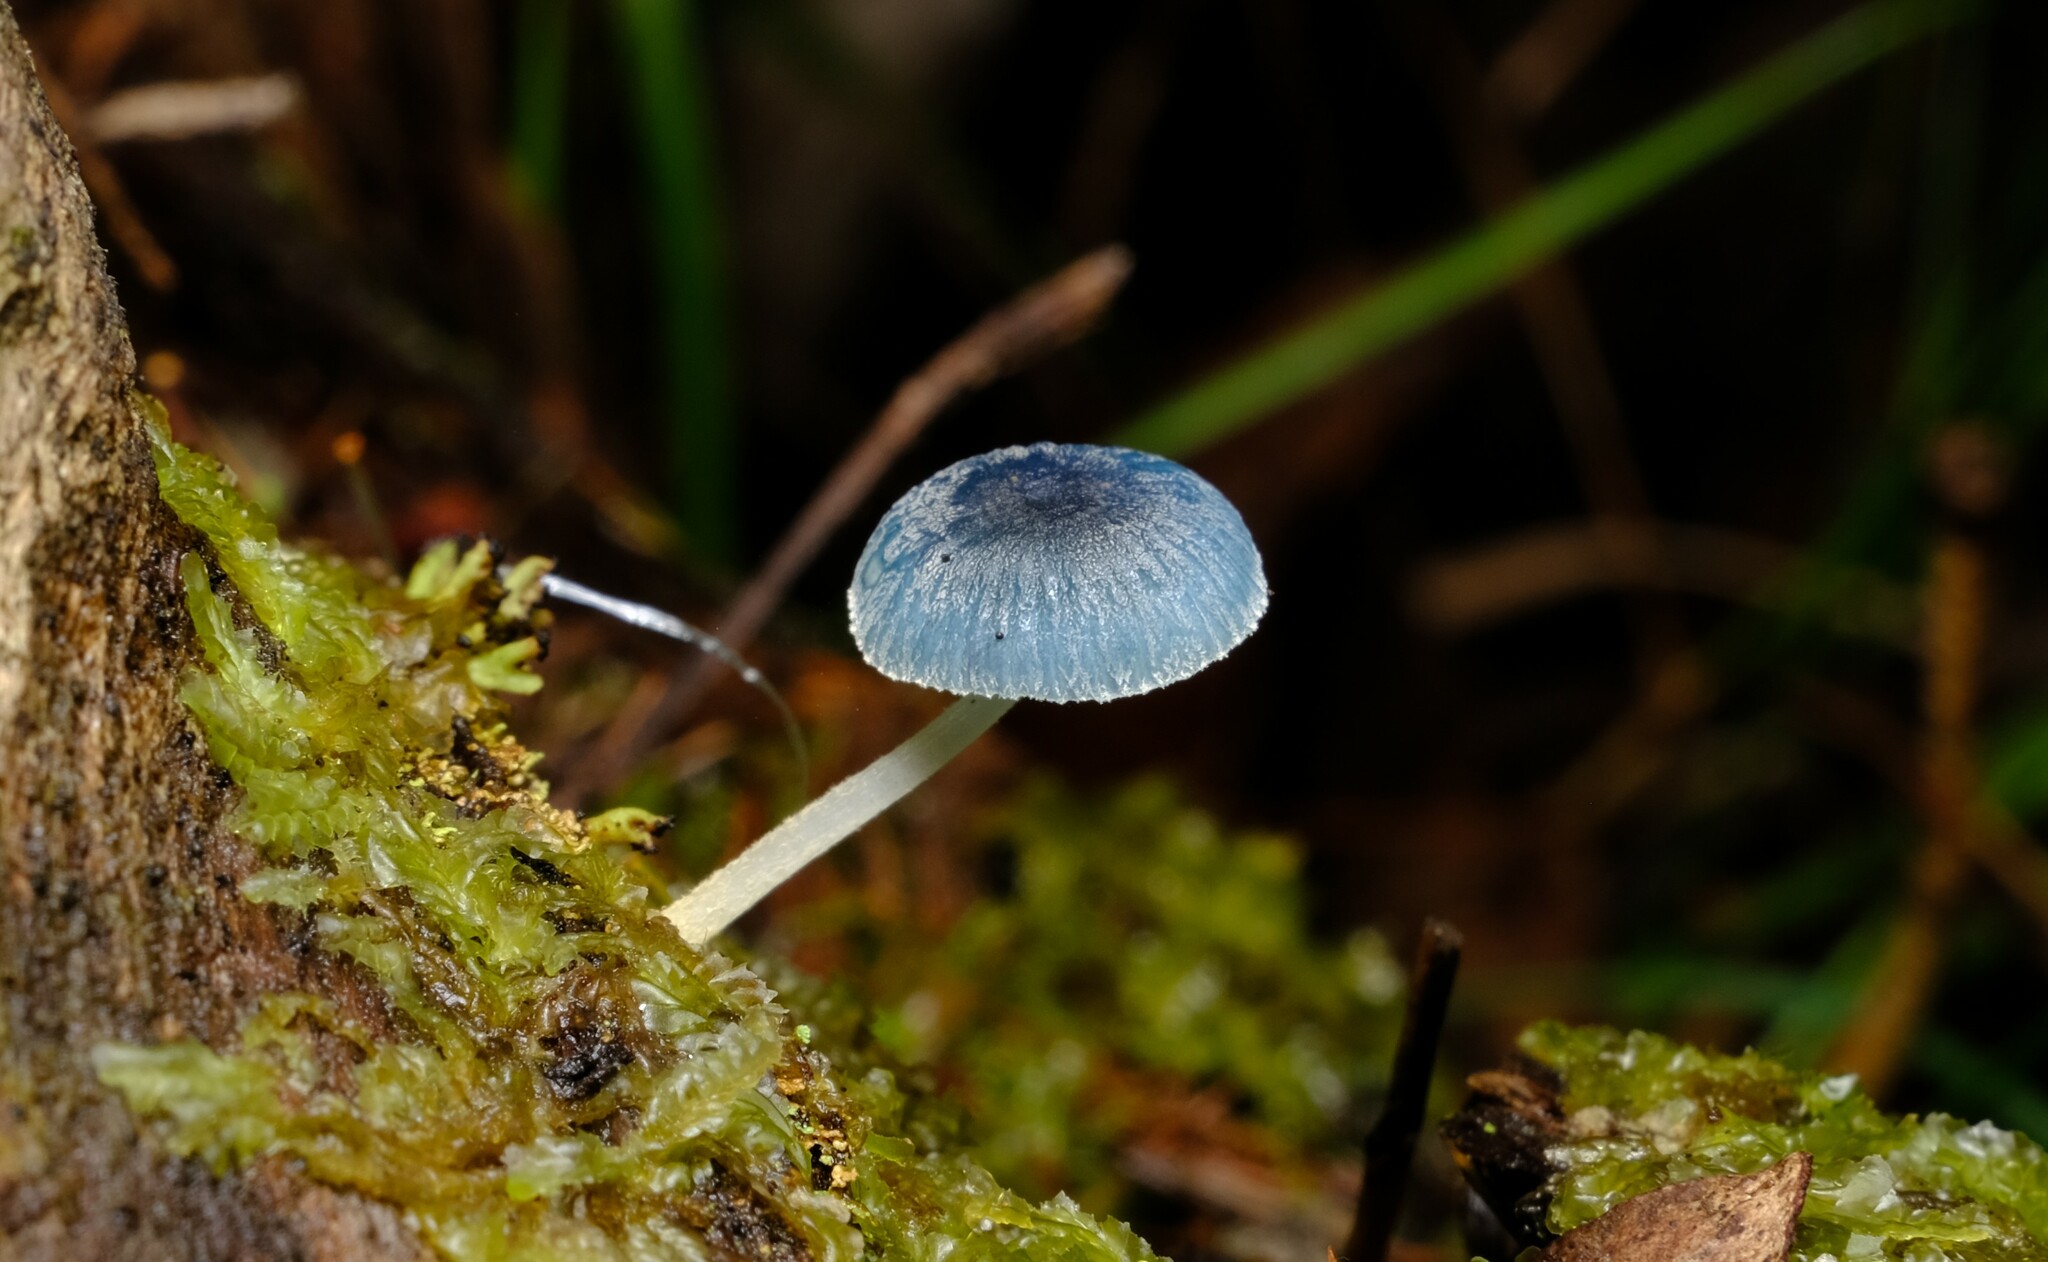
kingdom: Fungi
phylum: Basidiomycota
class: Agaricomycetes
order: Agaricales
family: Mycenaceae
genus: Mycena
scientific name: Mycena interrupta
